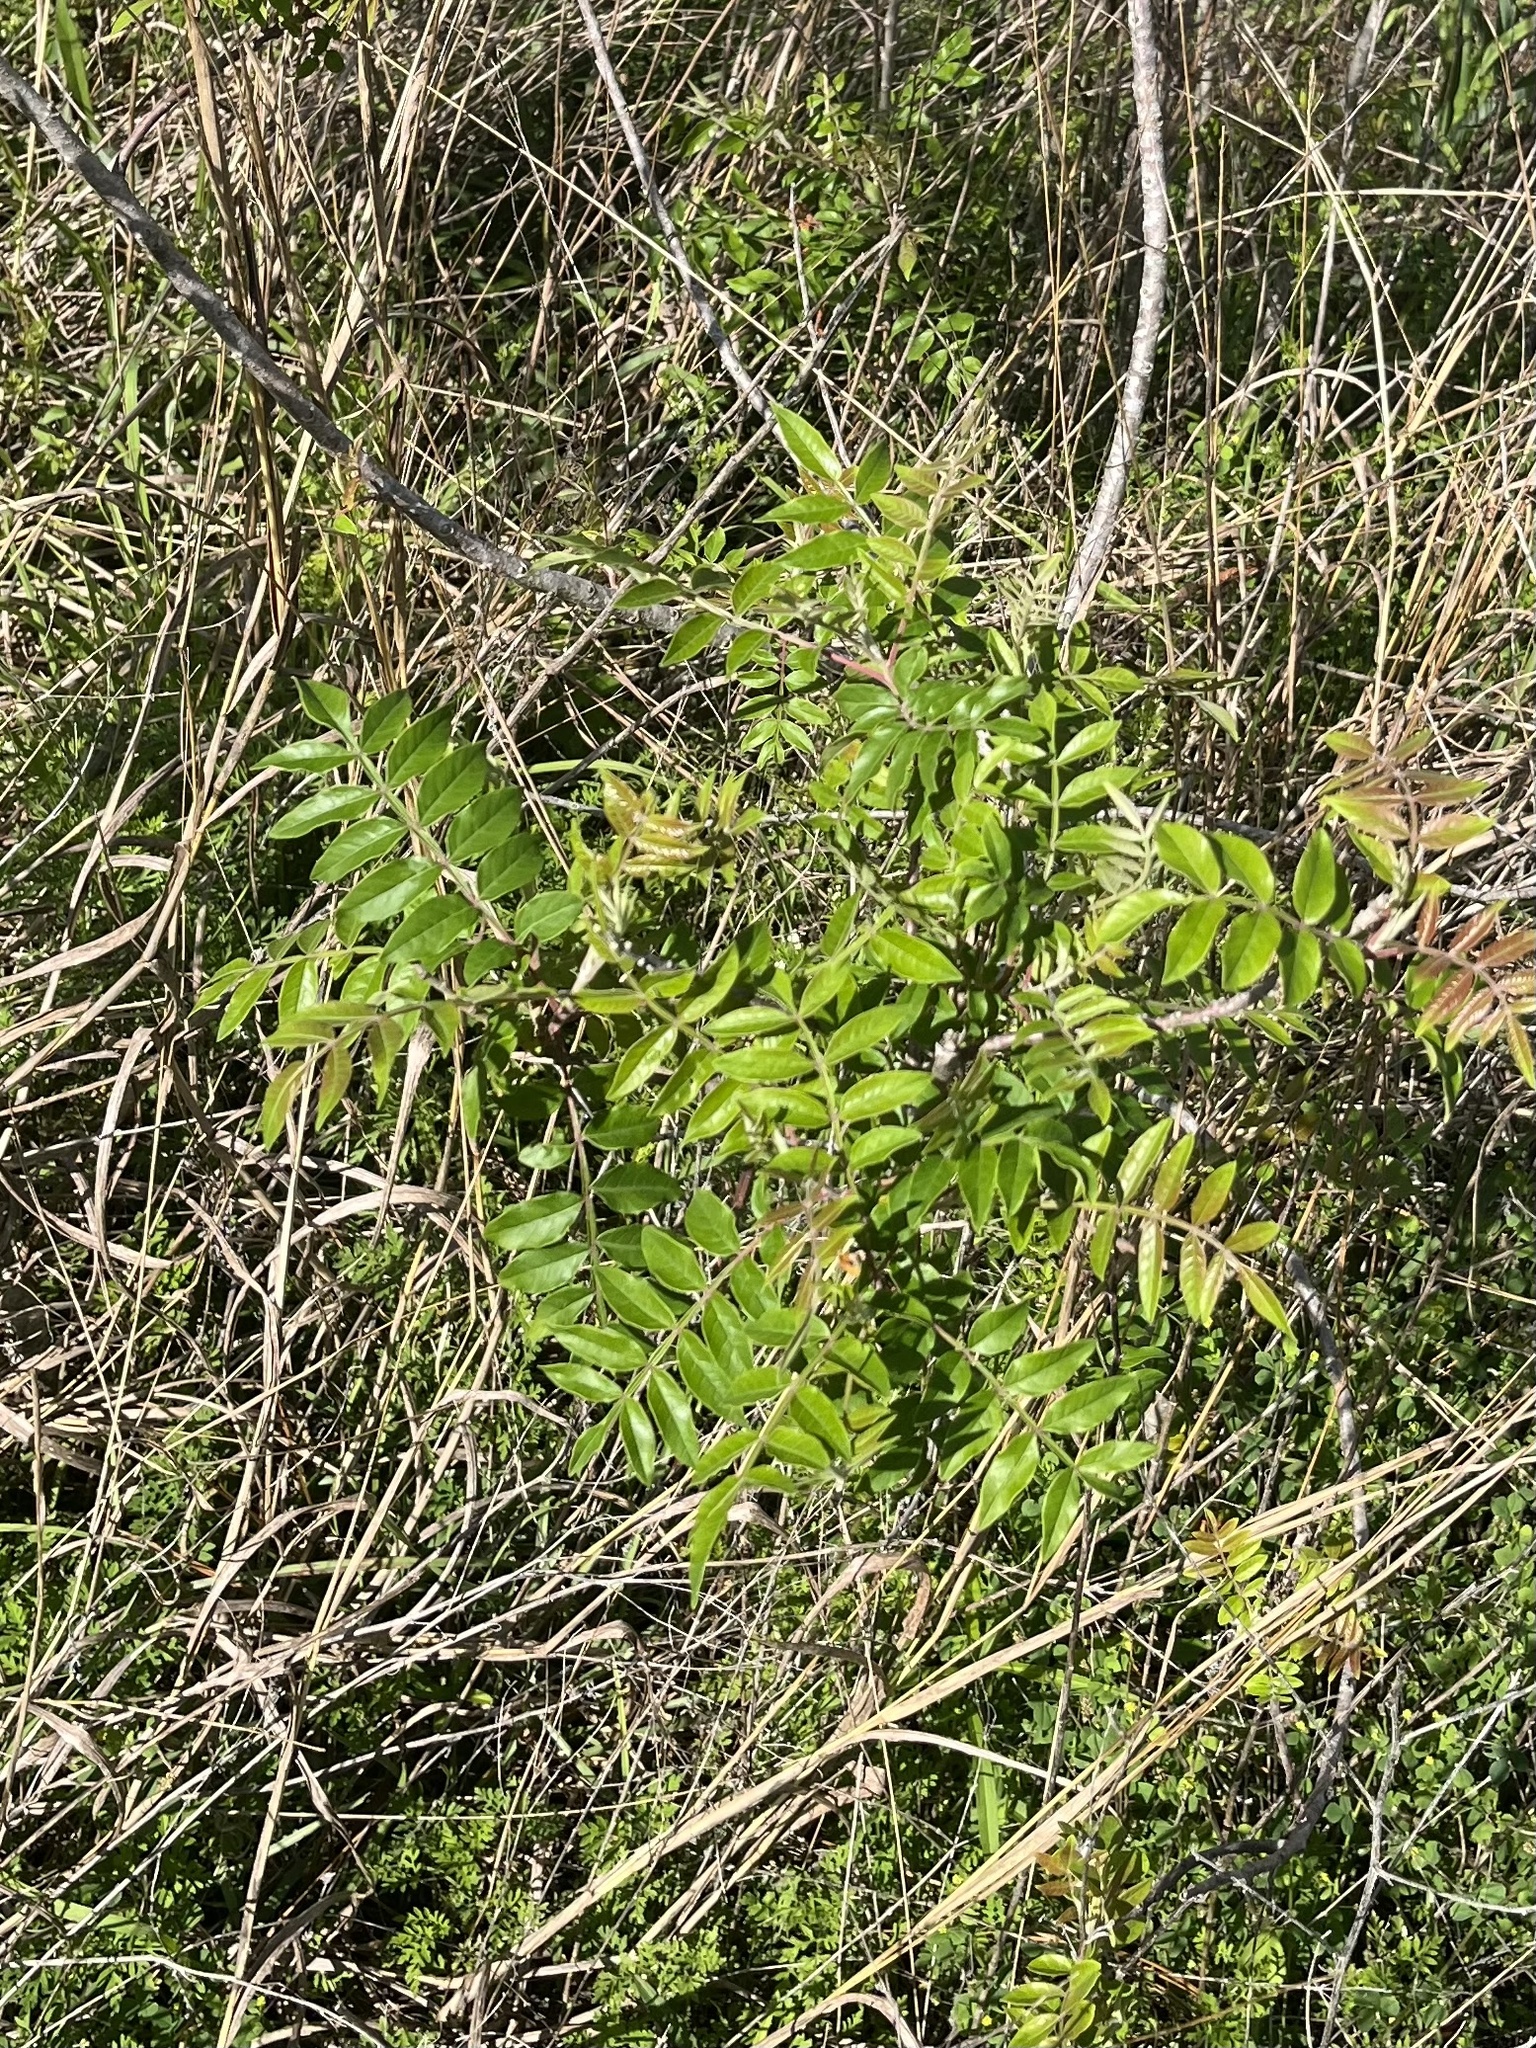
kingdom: Plantae
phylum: Tracheophyta
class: Magnoliopsida
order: Sapindales
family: Anacardiaceae
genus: Rhus
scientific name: Rhus copallina
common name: Shining sumac
